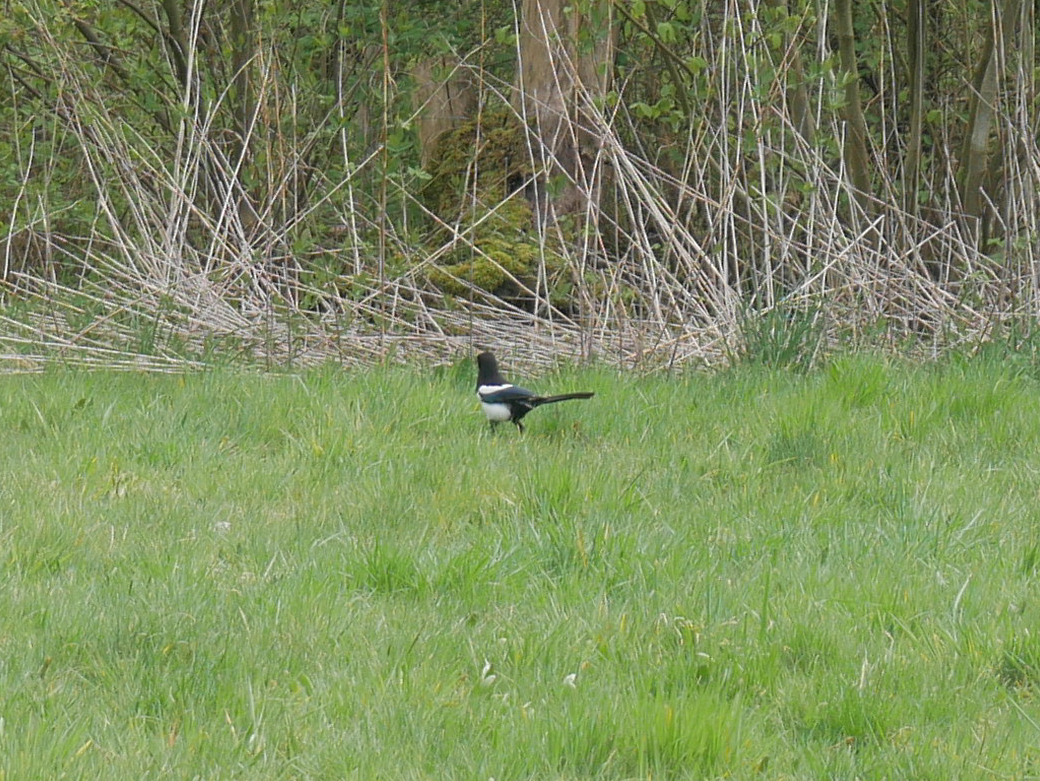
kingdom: Animalia
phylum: Chordata
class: Aves
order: Passeriformes
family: Corvidae
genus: Pica
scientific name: Pica pica
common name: Eurasian magpie
